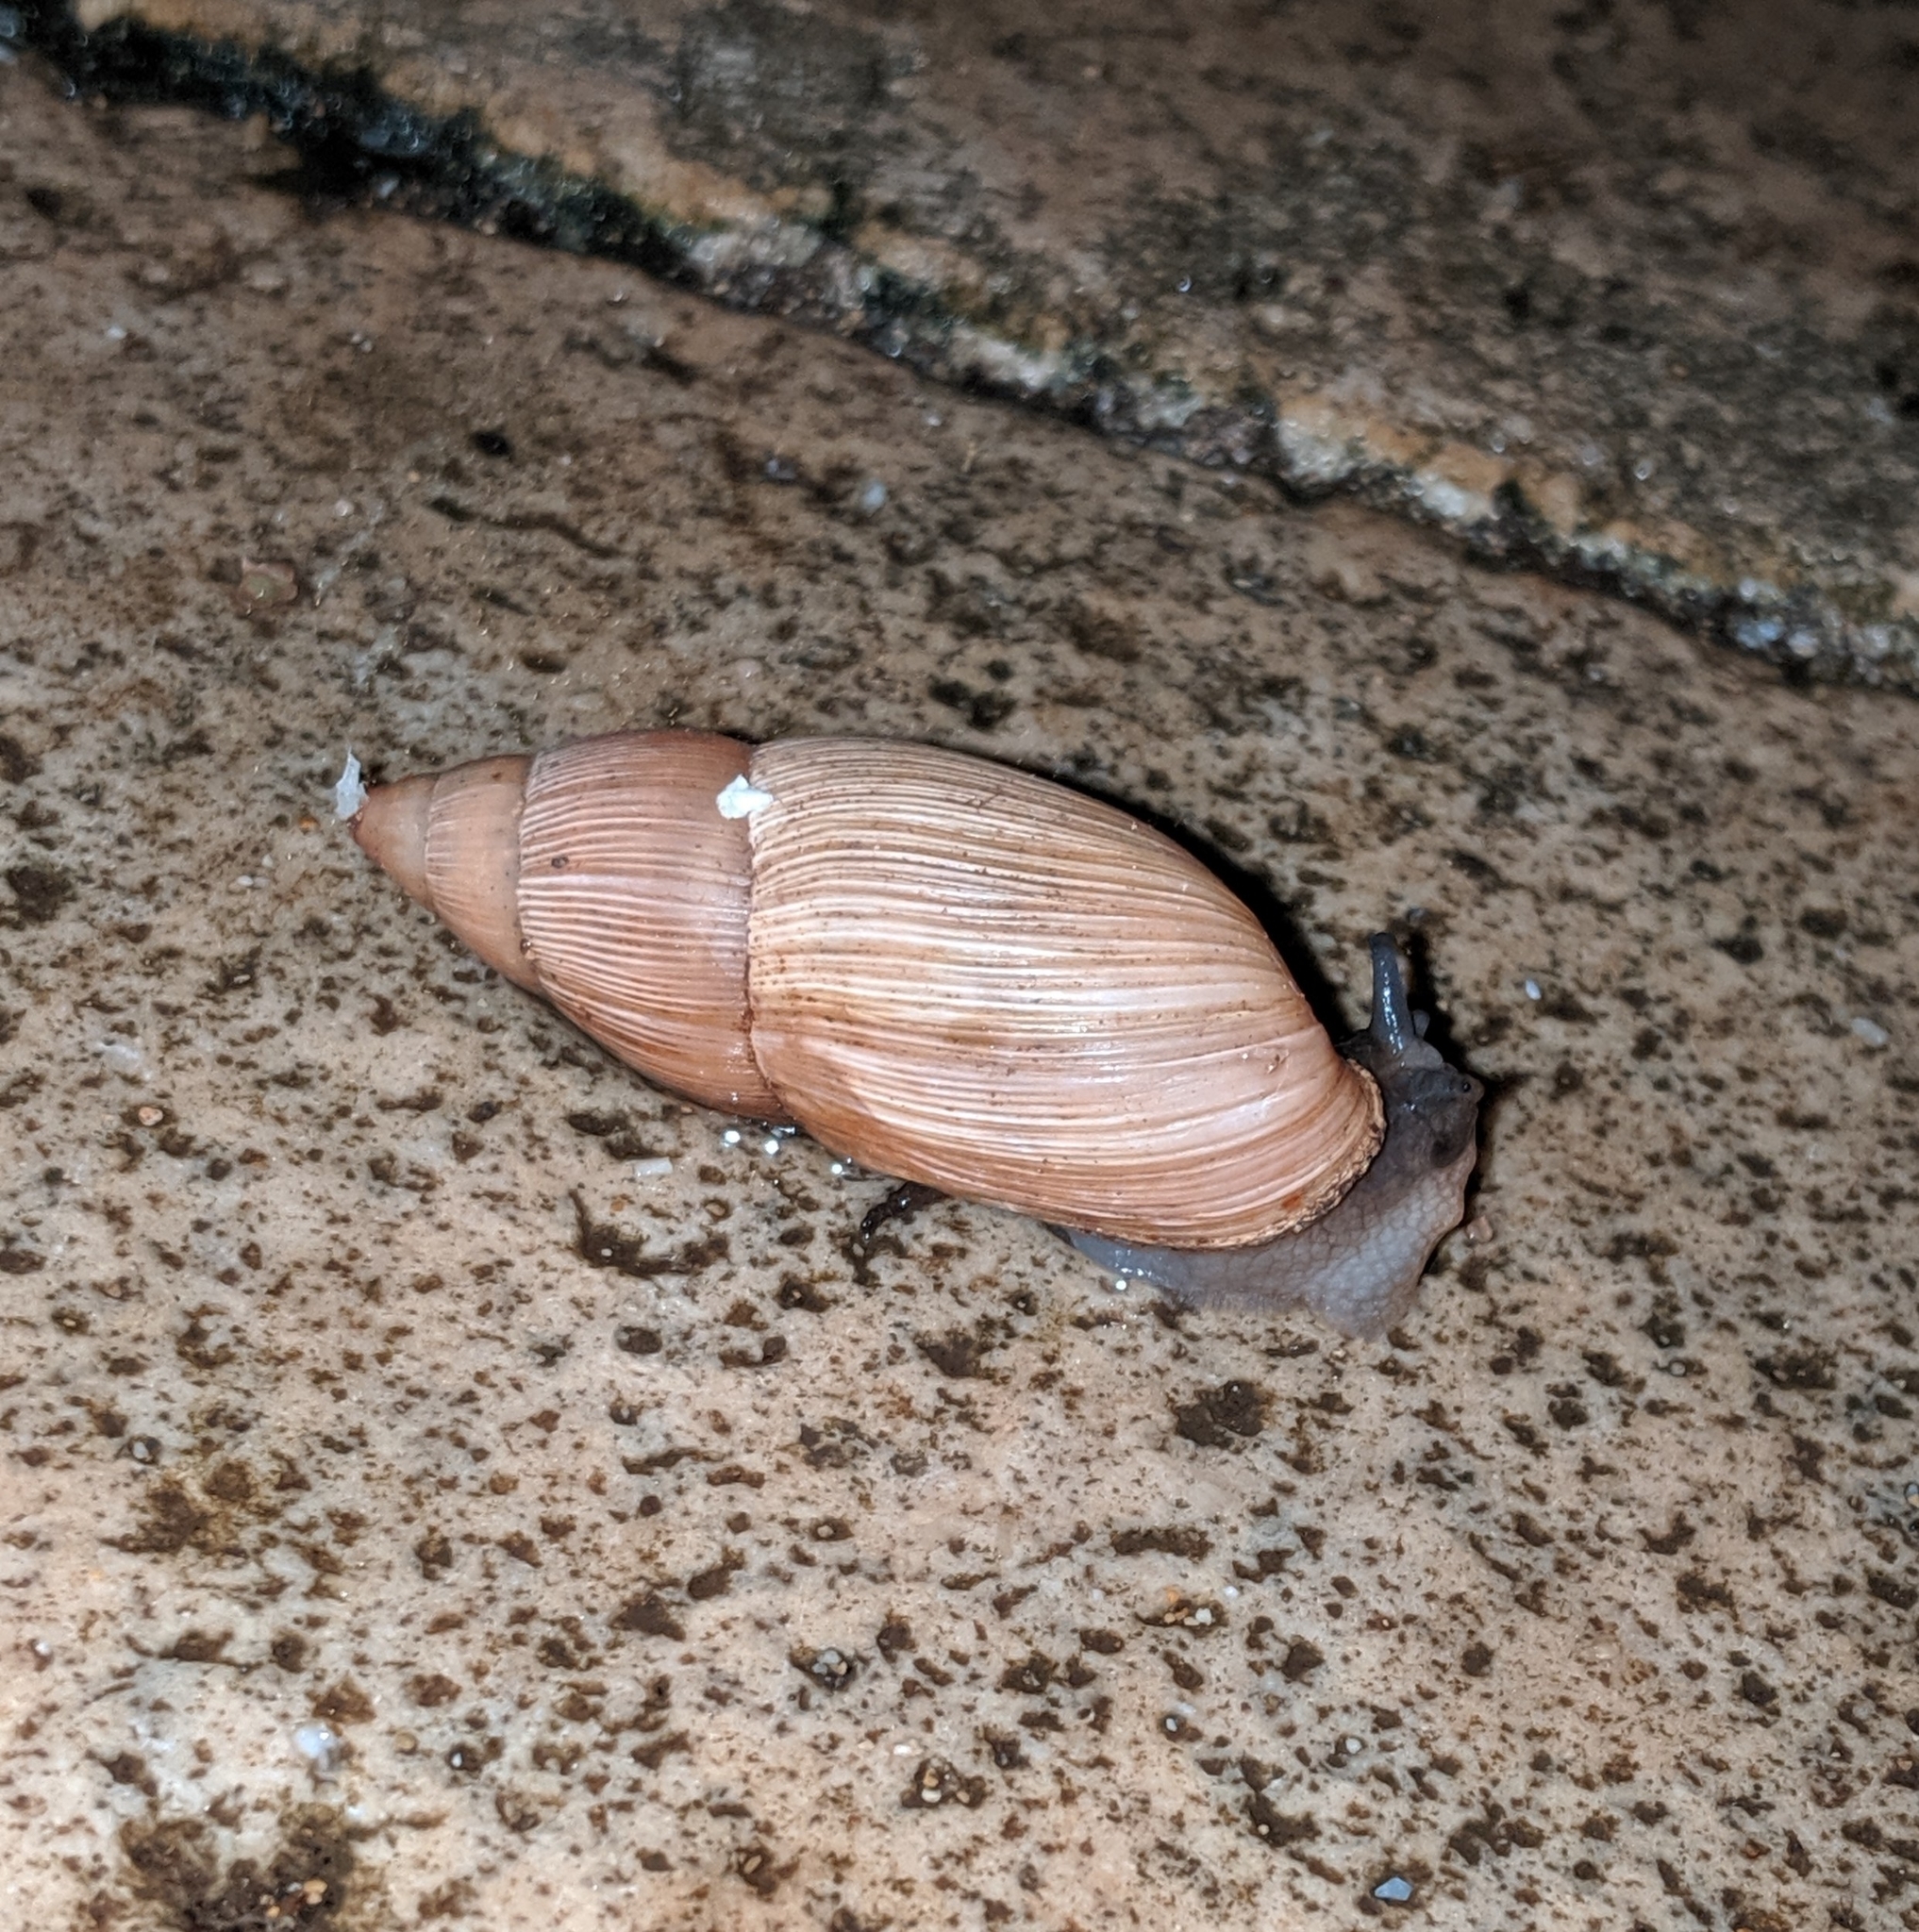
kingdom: Animalia
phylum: Mollusca
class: Gastropoda
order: Stylommatophora
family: Spiraxidae
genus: Euglandina
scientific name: Euglandina rosea
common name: Rosy wolfsnail
